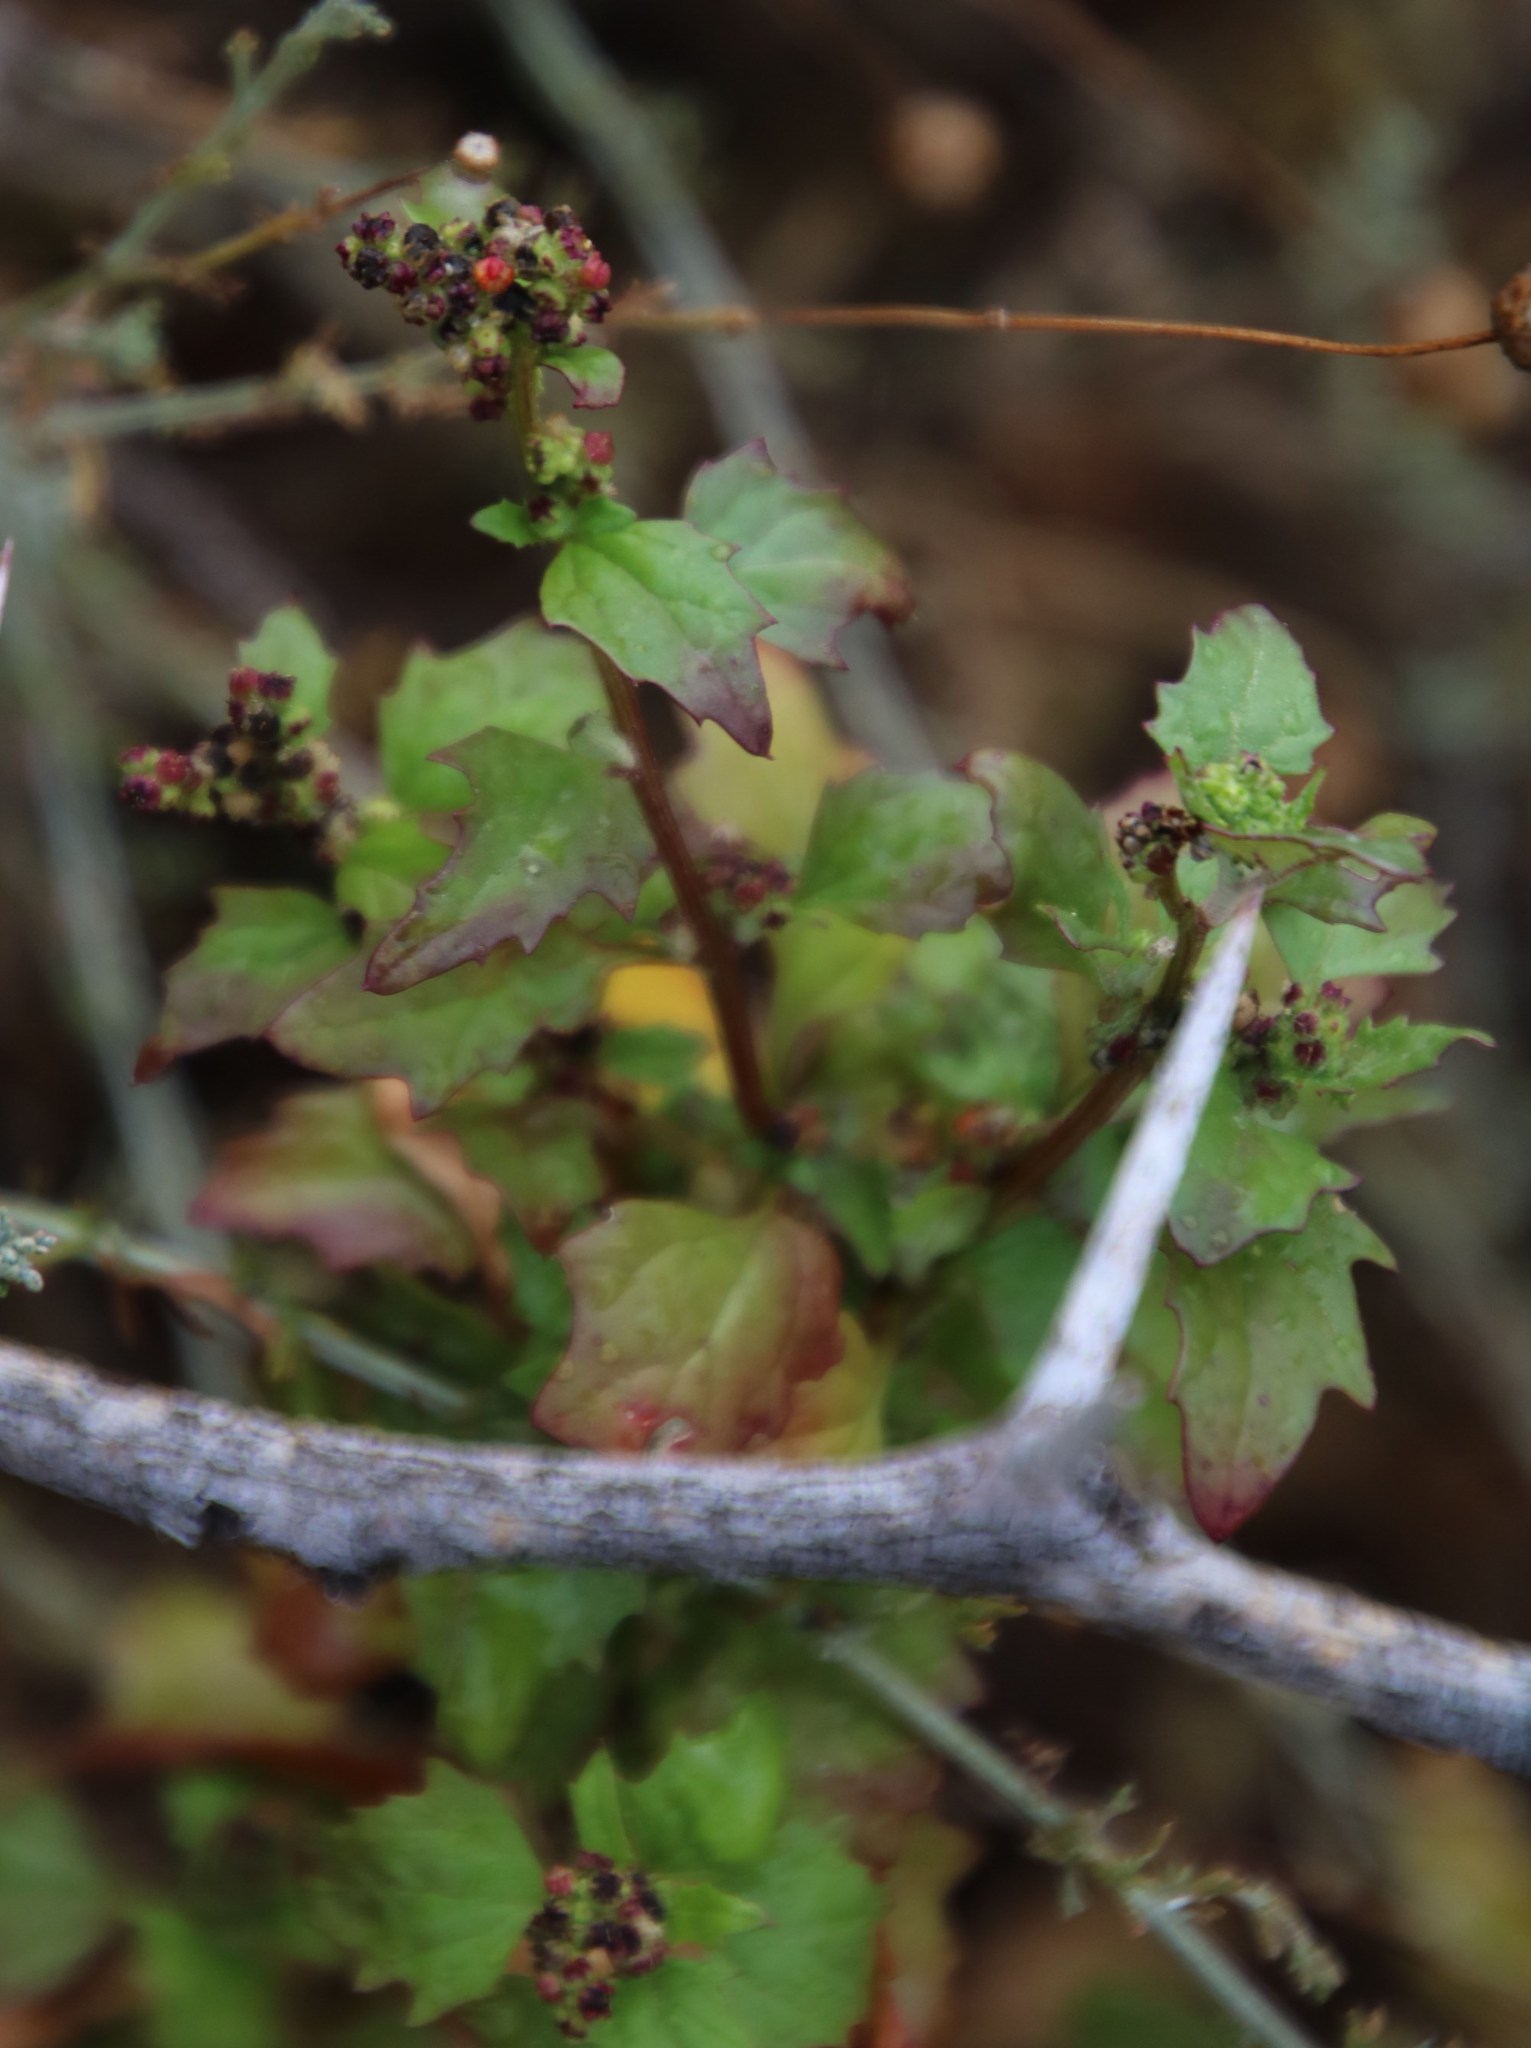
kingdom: Plantae
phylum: Tracheophyta
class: Magnoliopsida
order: Caryophyllales
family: Amaranthaceae
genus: Chenopodiastrum
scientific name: Chenopodiastrum murale
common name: Sowbane
